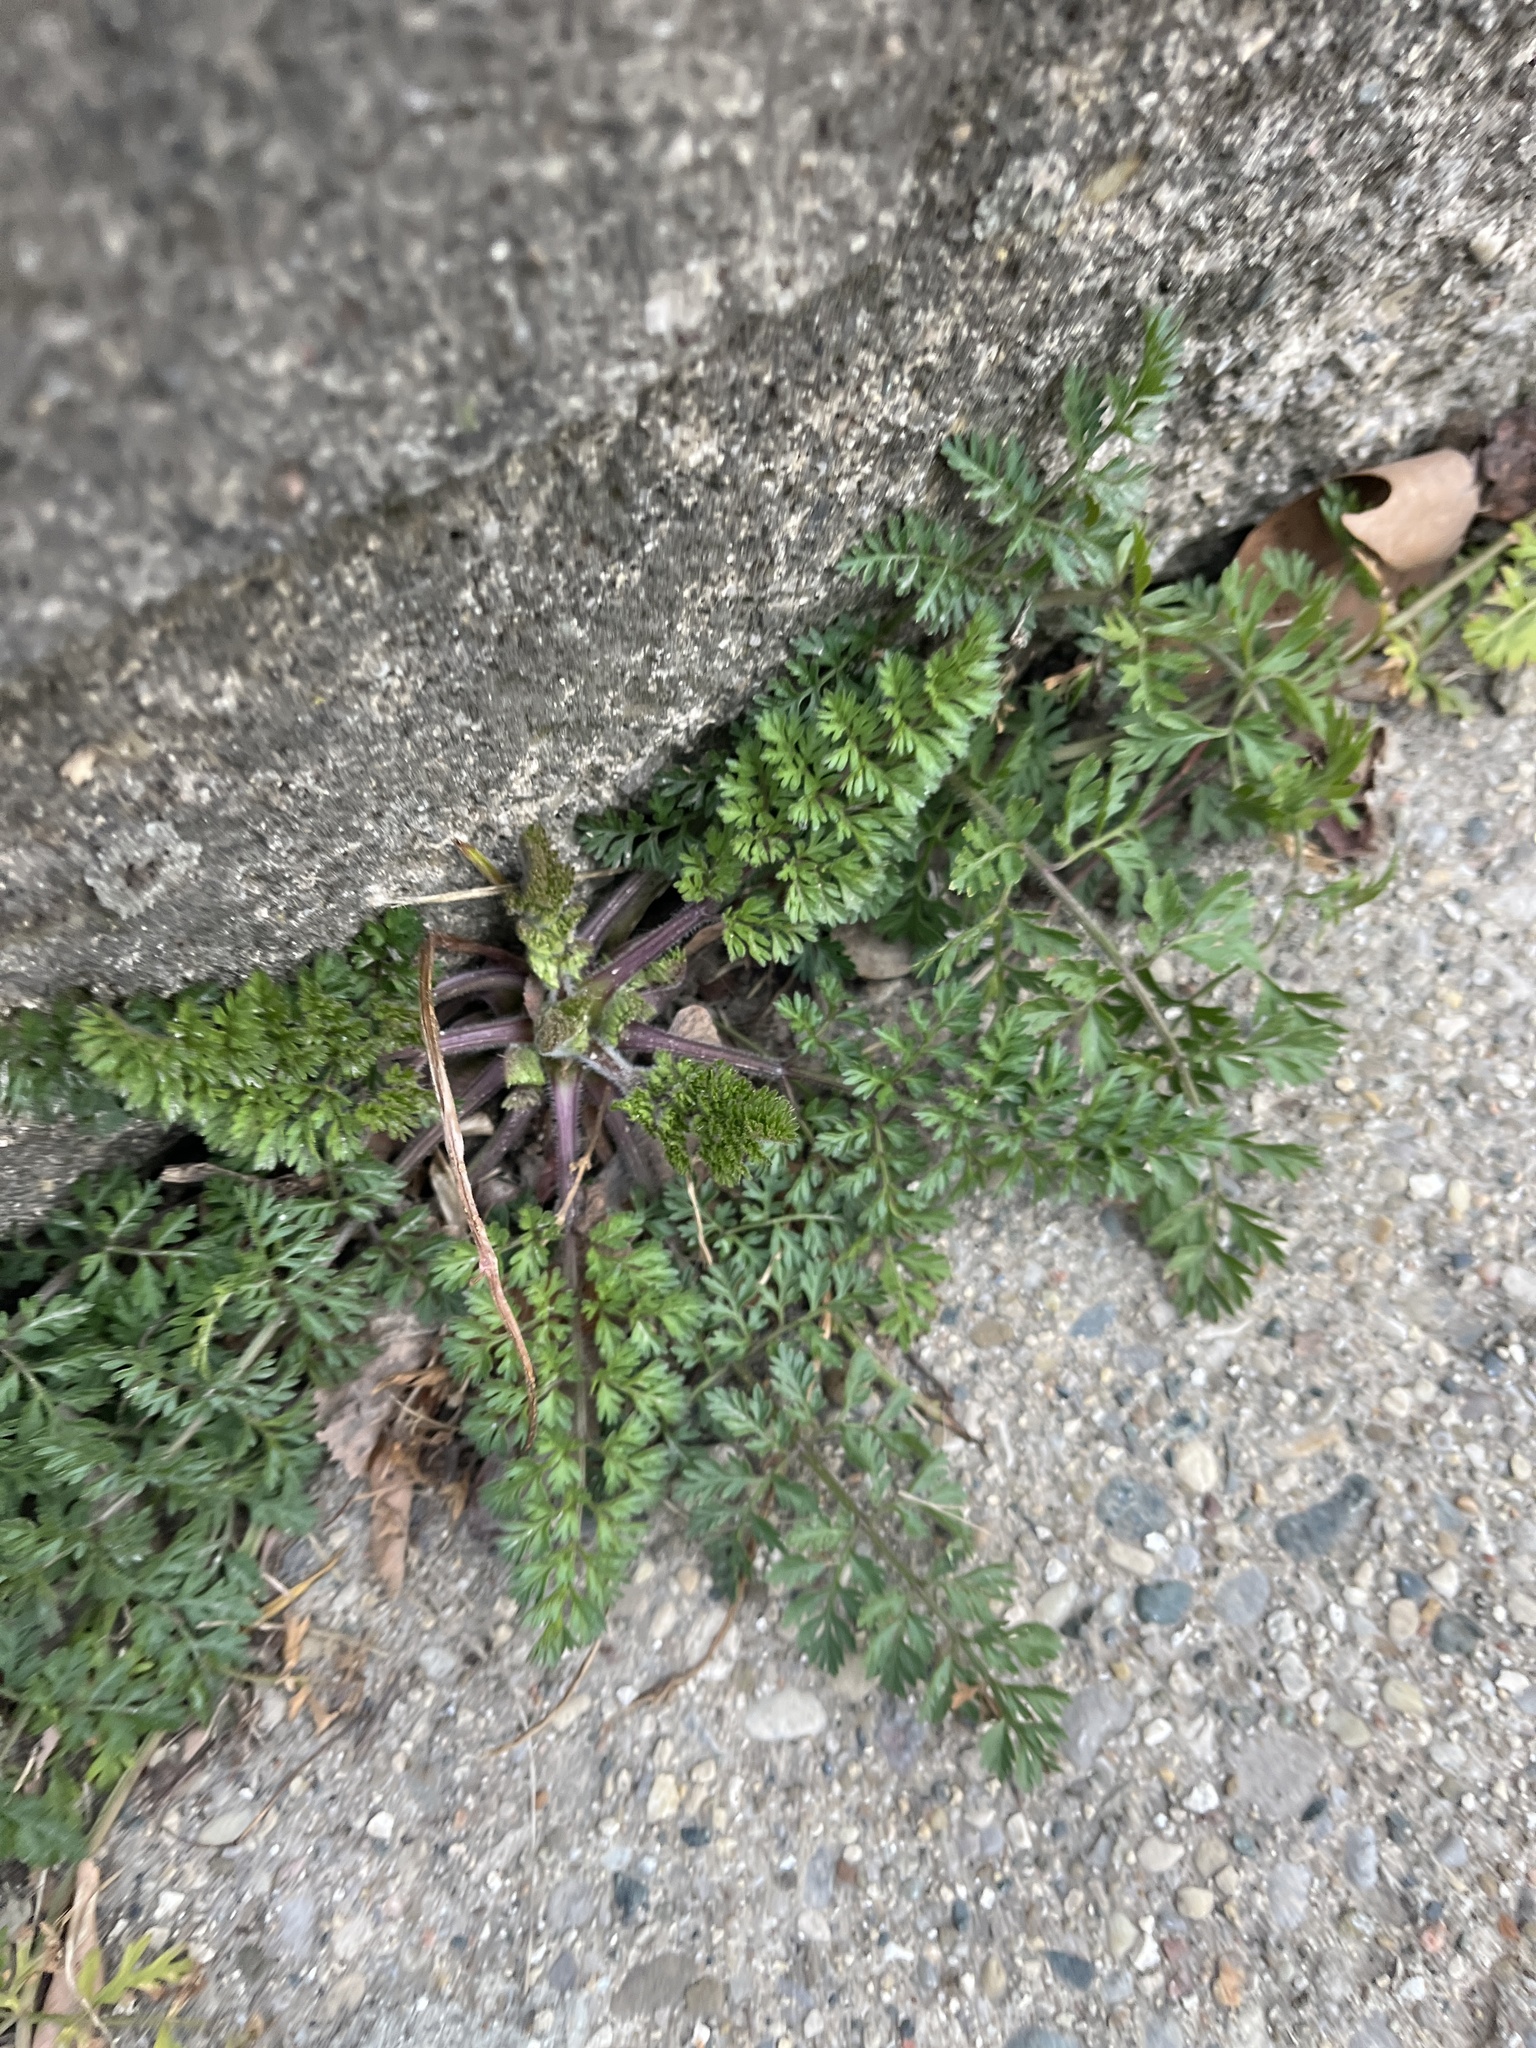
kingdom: Plantae
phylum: Tracheophyta
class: Magnoliopsida
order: Apiales
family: Apiaceae
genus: Daucus
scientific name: Daucus carota
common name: Wild carrot
